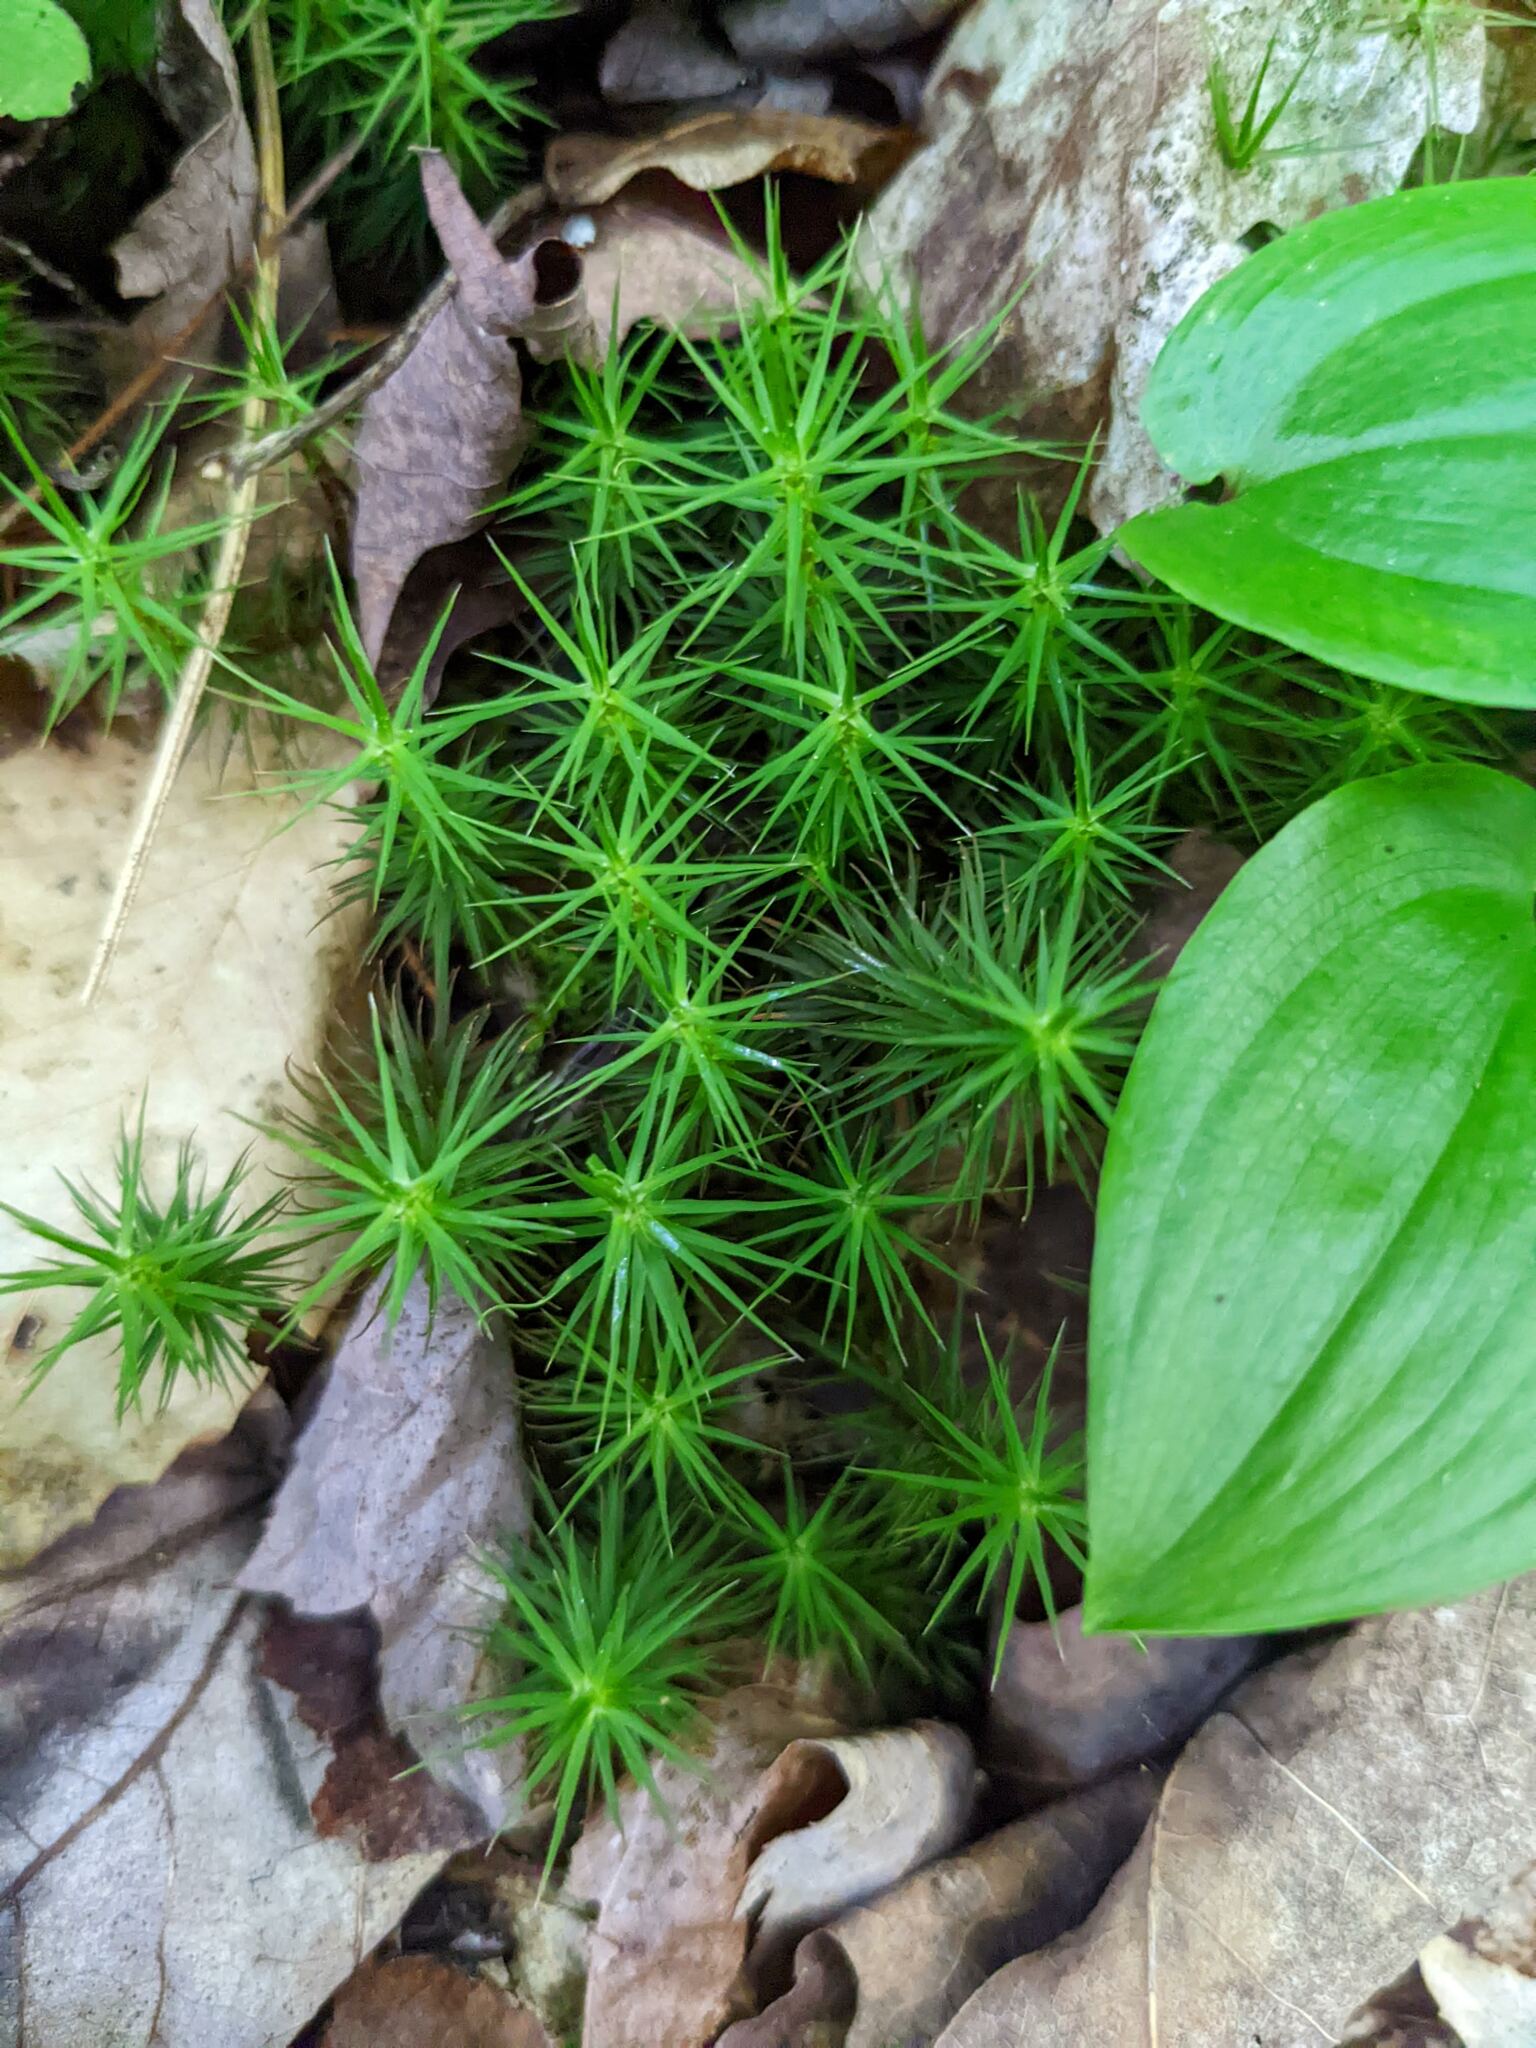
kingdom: Plantae
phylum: Tracheophyta
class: Liliopsida
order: Asparagales
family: Asparagaceae
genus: Maianthemum
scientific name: Maianthemum canadense
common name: False lily-of-the-valley
